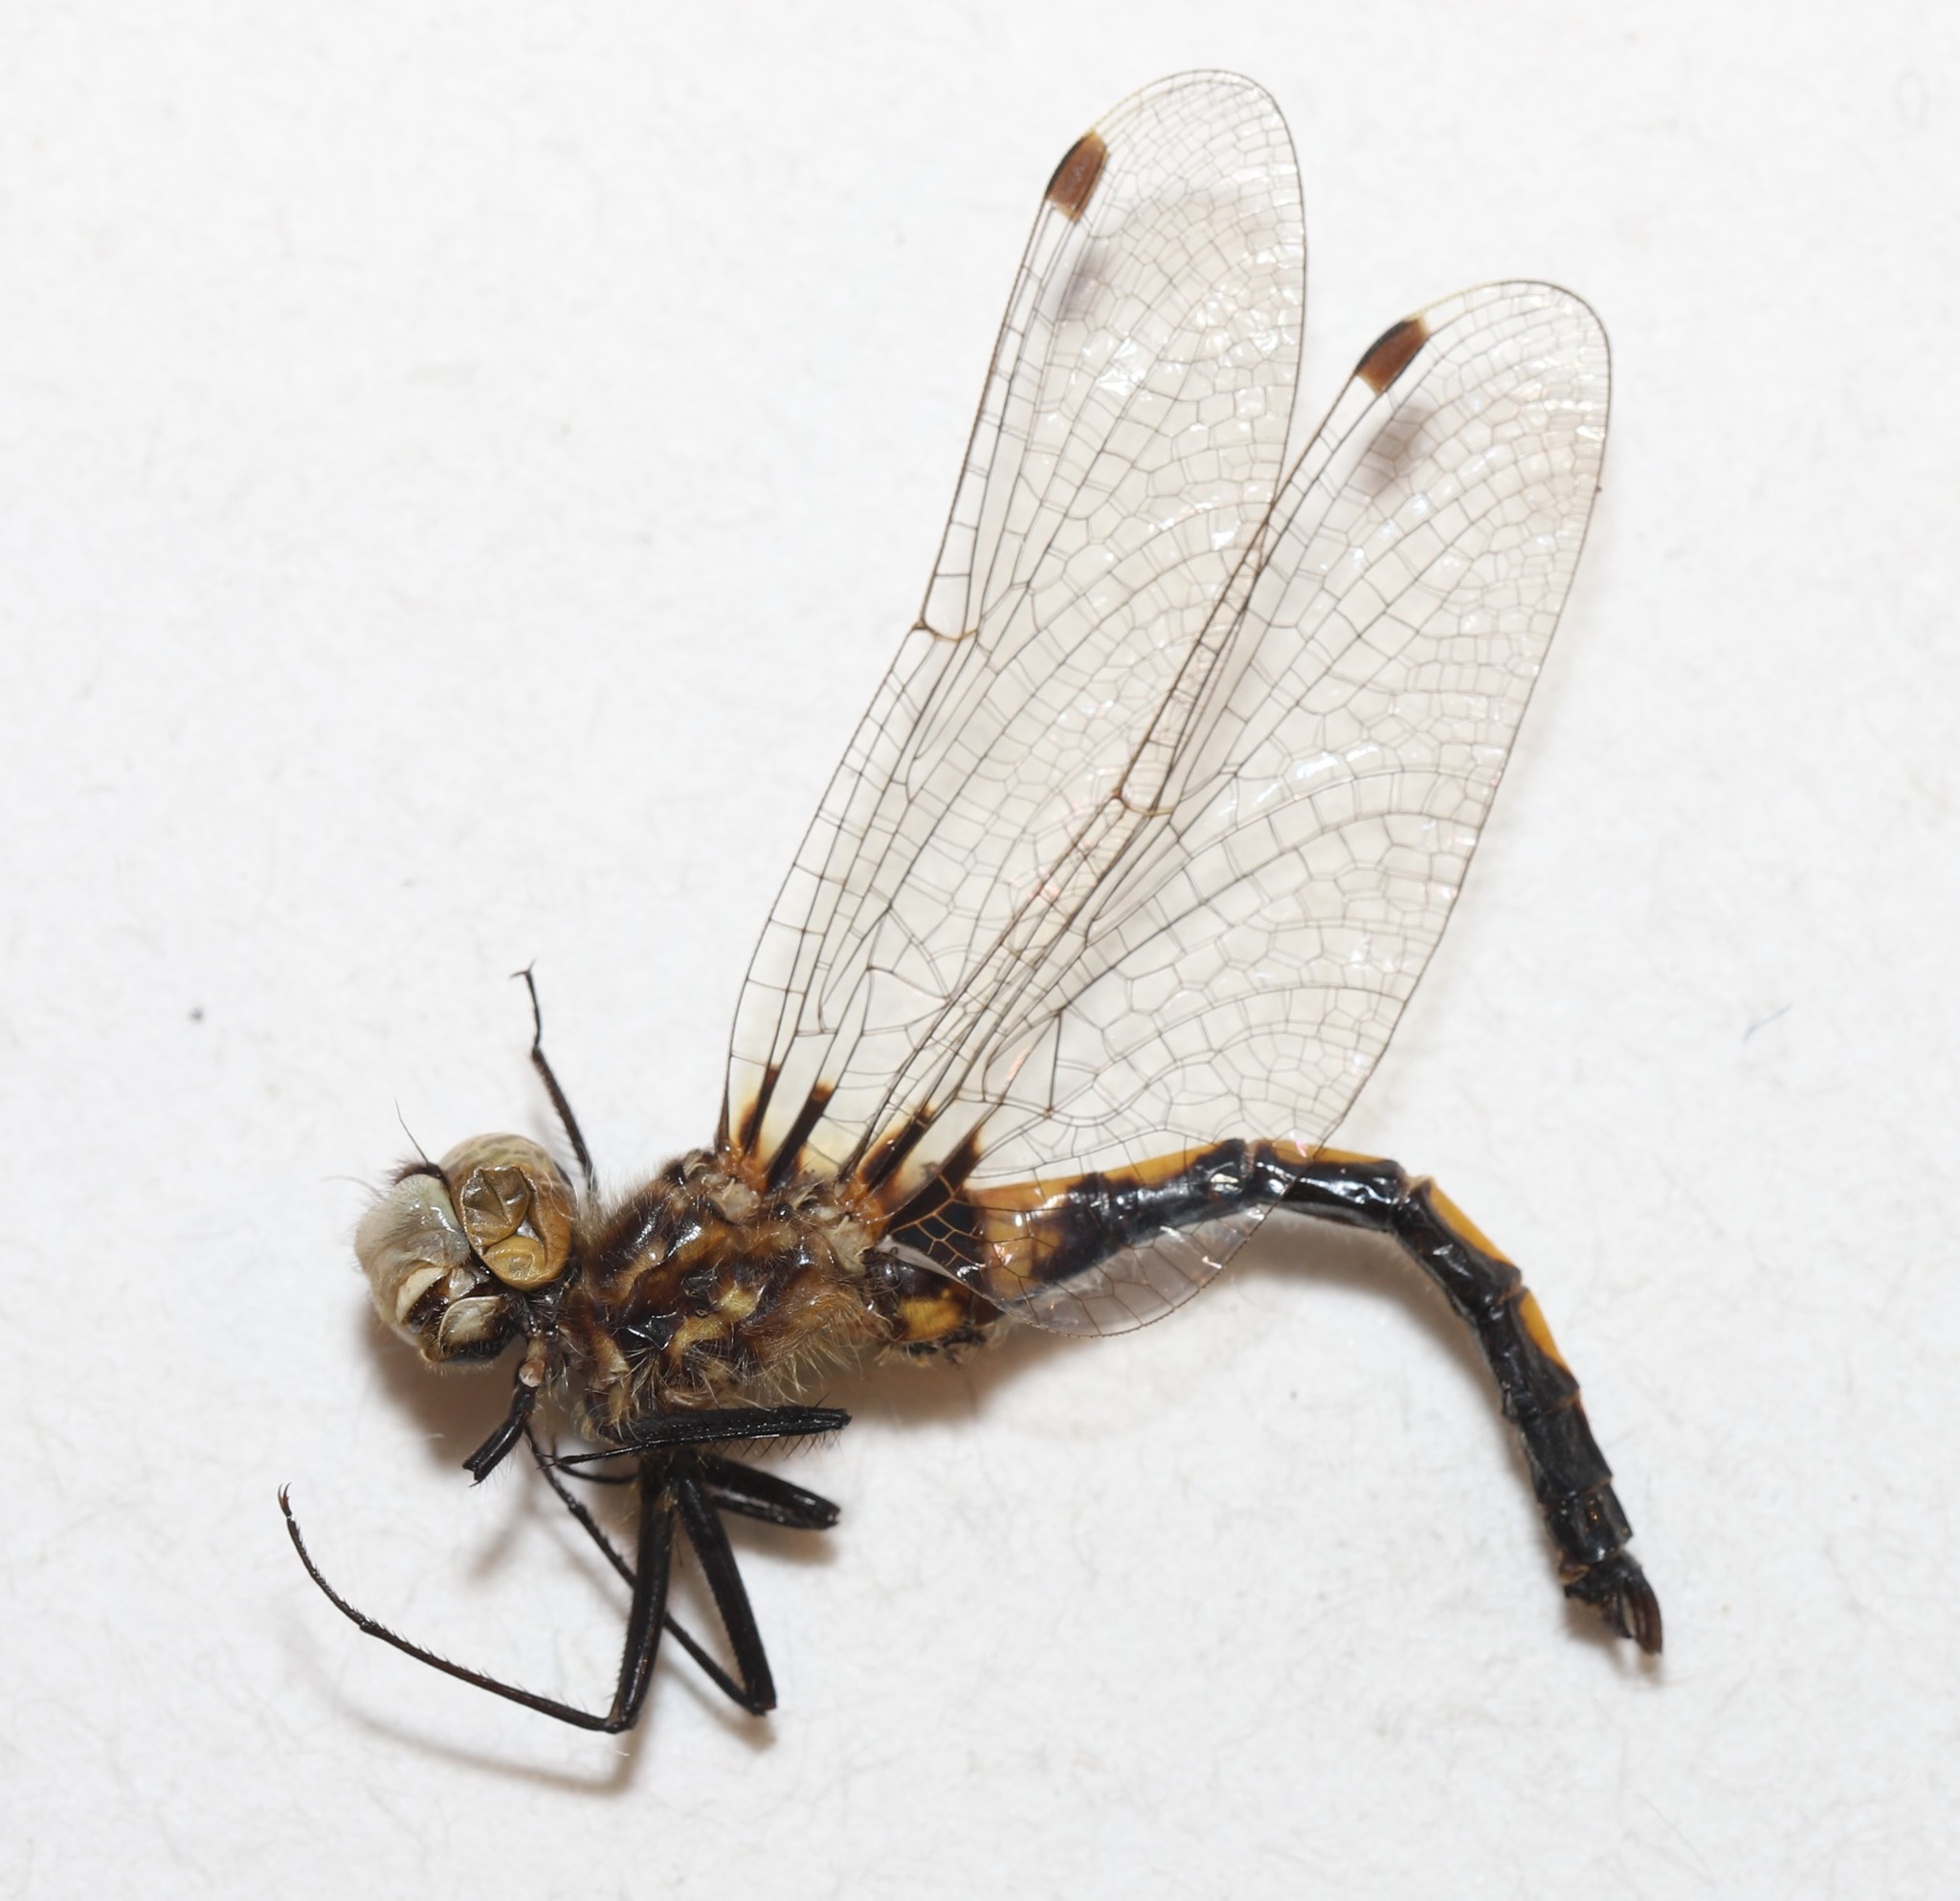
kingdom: Animalia
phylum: Arthropoda
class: Insecta
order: Odonata
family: Libellulidae
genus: Leucorrhinia
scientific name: Leucorrhinia hudsonica
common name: Hudsonian whiteface
